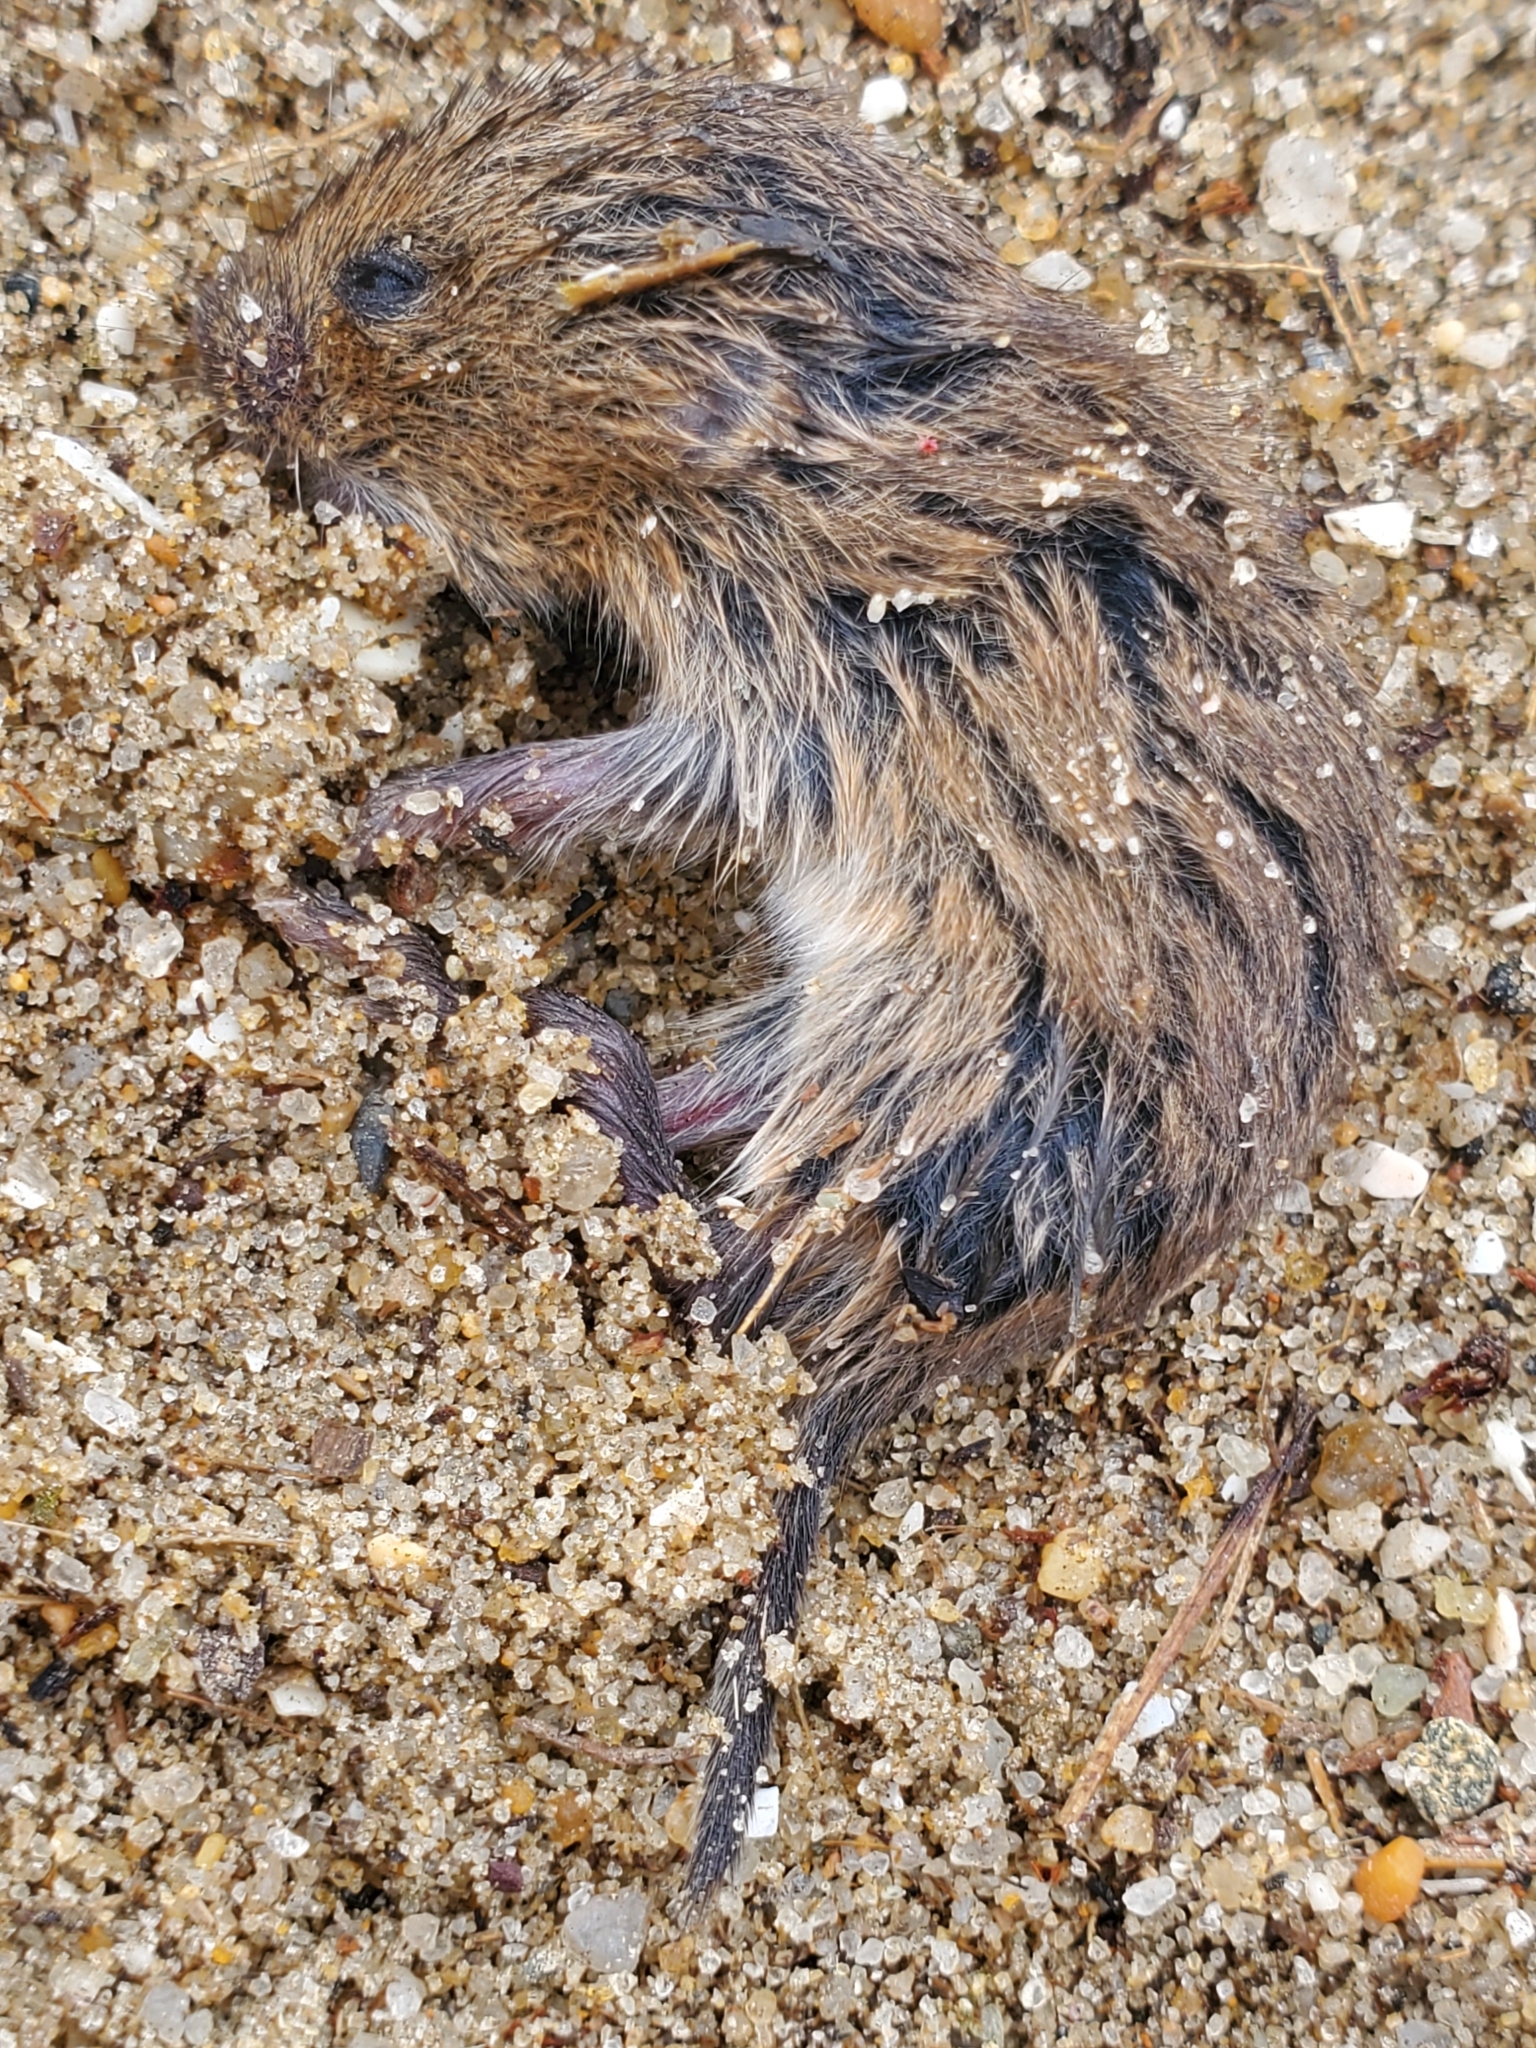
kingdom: Animalia
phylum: Chordata
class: Mammalia
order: Rodentia
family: Cricetidae
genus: Microtus
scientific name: Microtus pennsylvanicus
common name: Meadow vole
